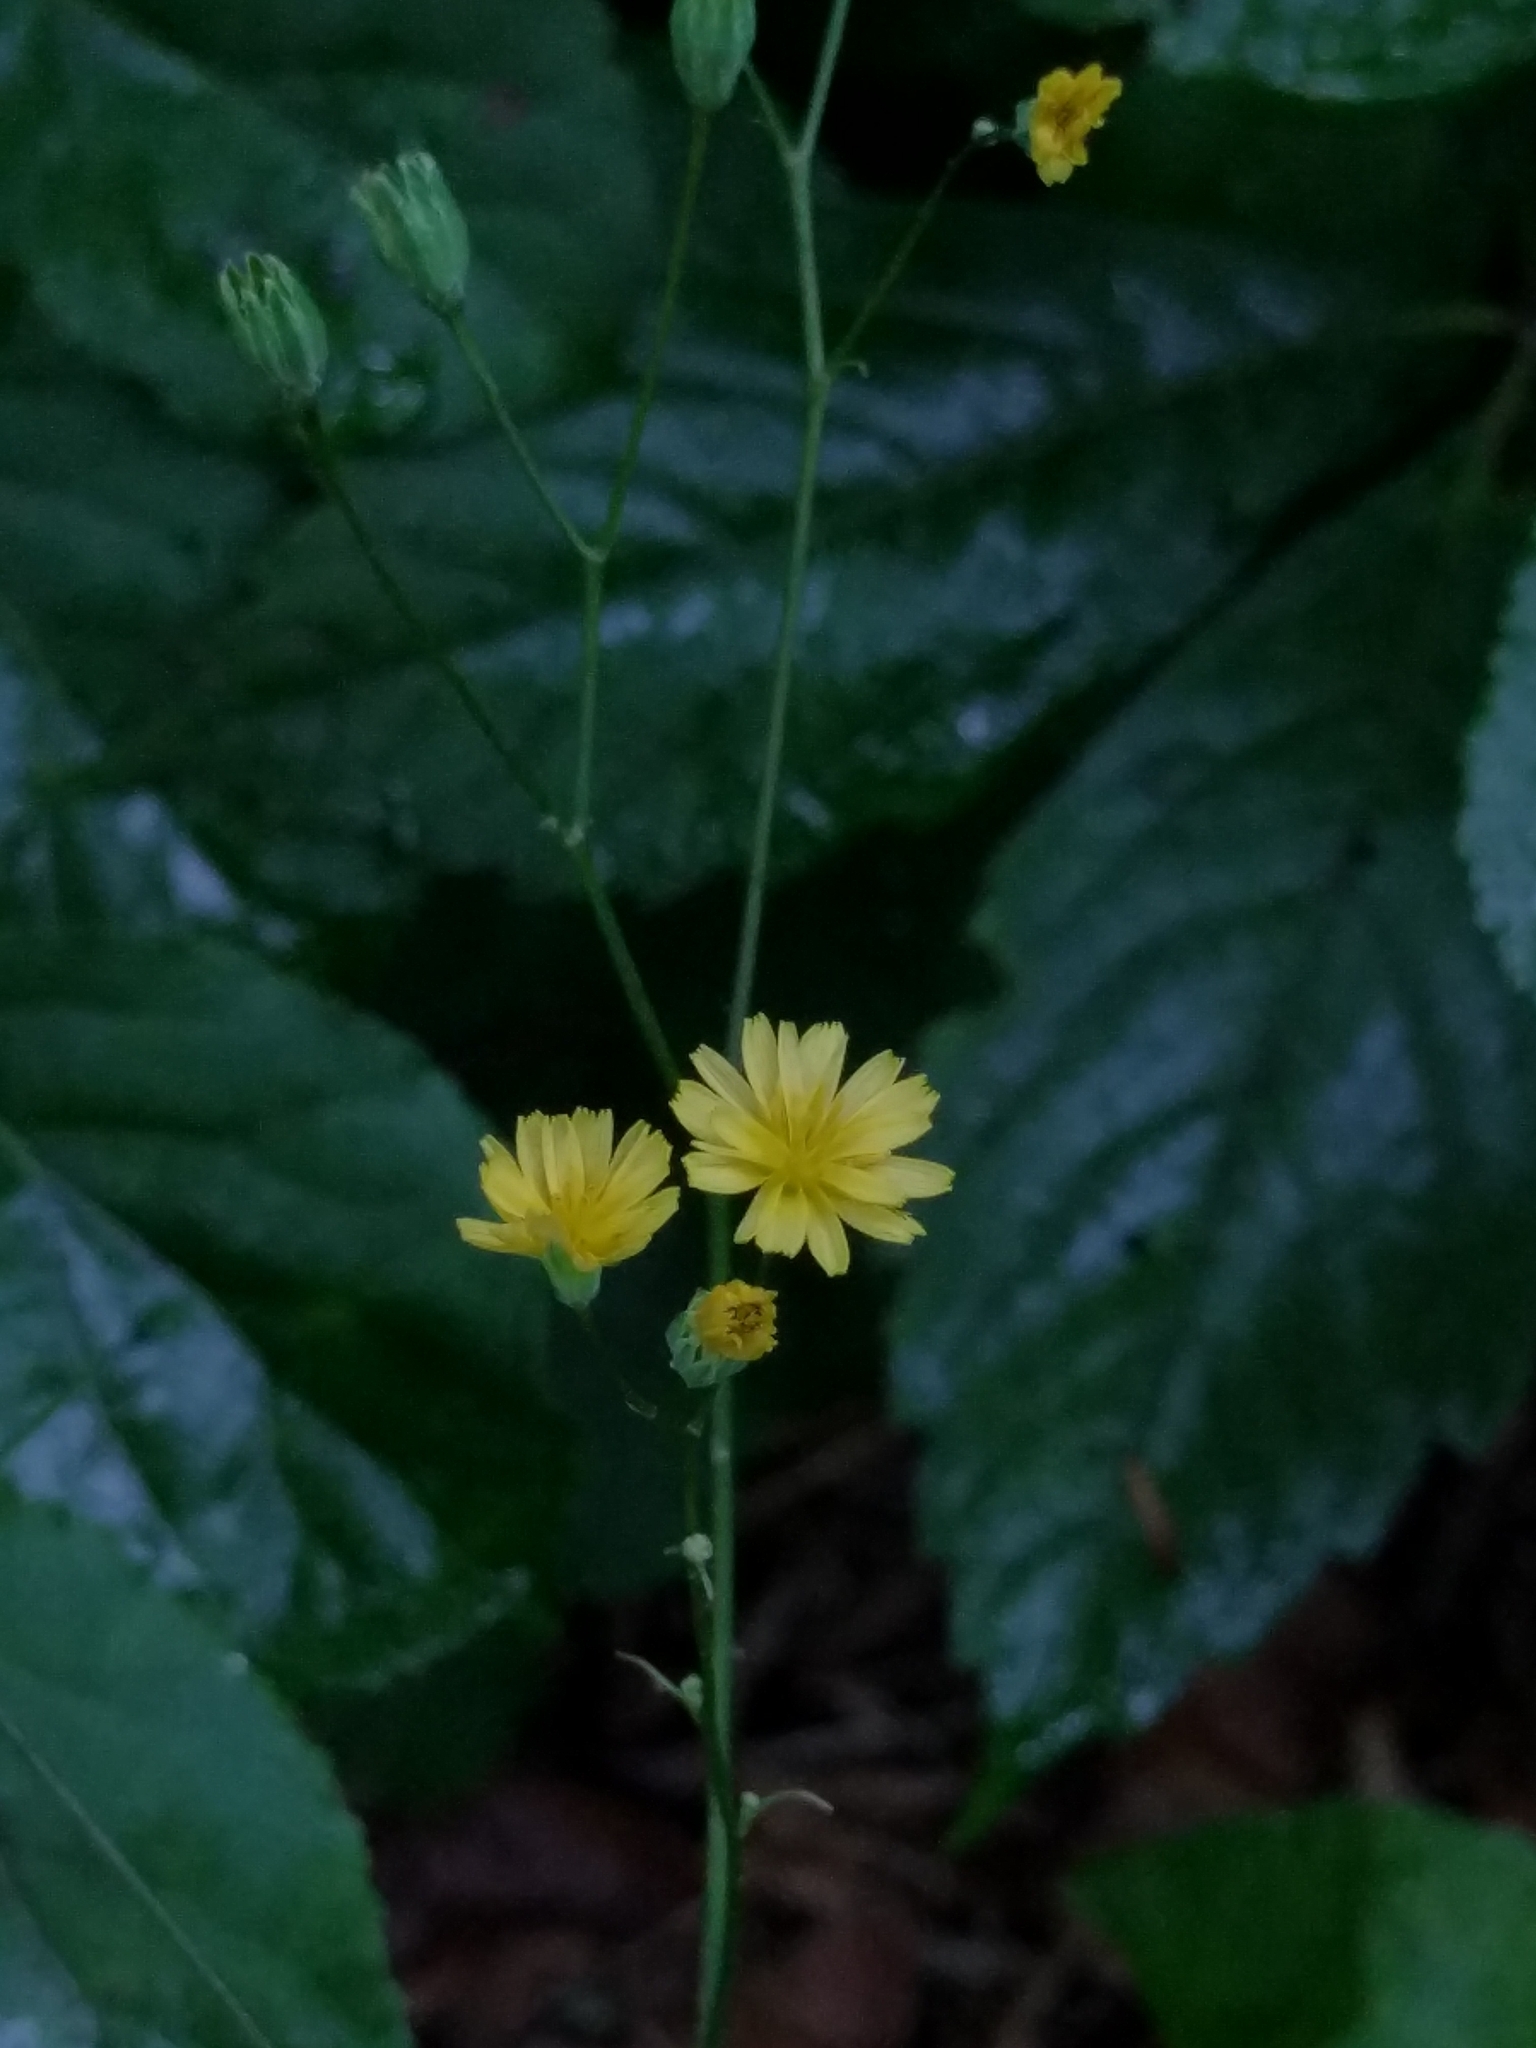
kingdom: Plantae
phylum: Tracheophyta
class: Magnoliopsida
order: Asterales
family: Asteraceae
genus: Lapsana
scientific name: Lapsana communis
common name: Nipplewort
